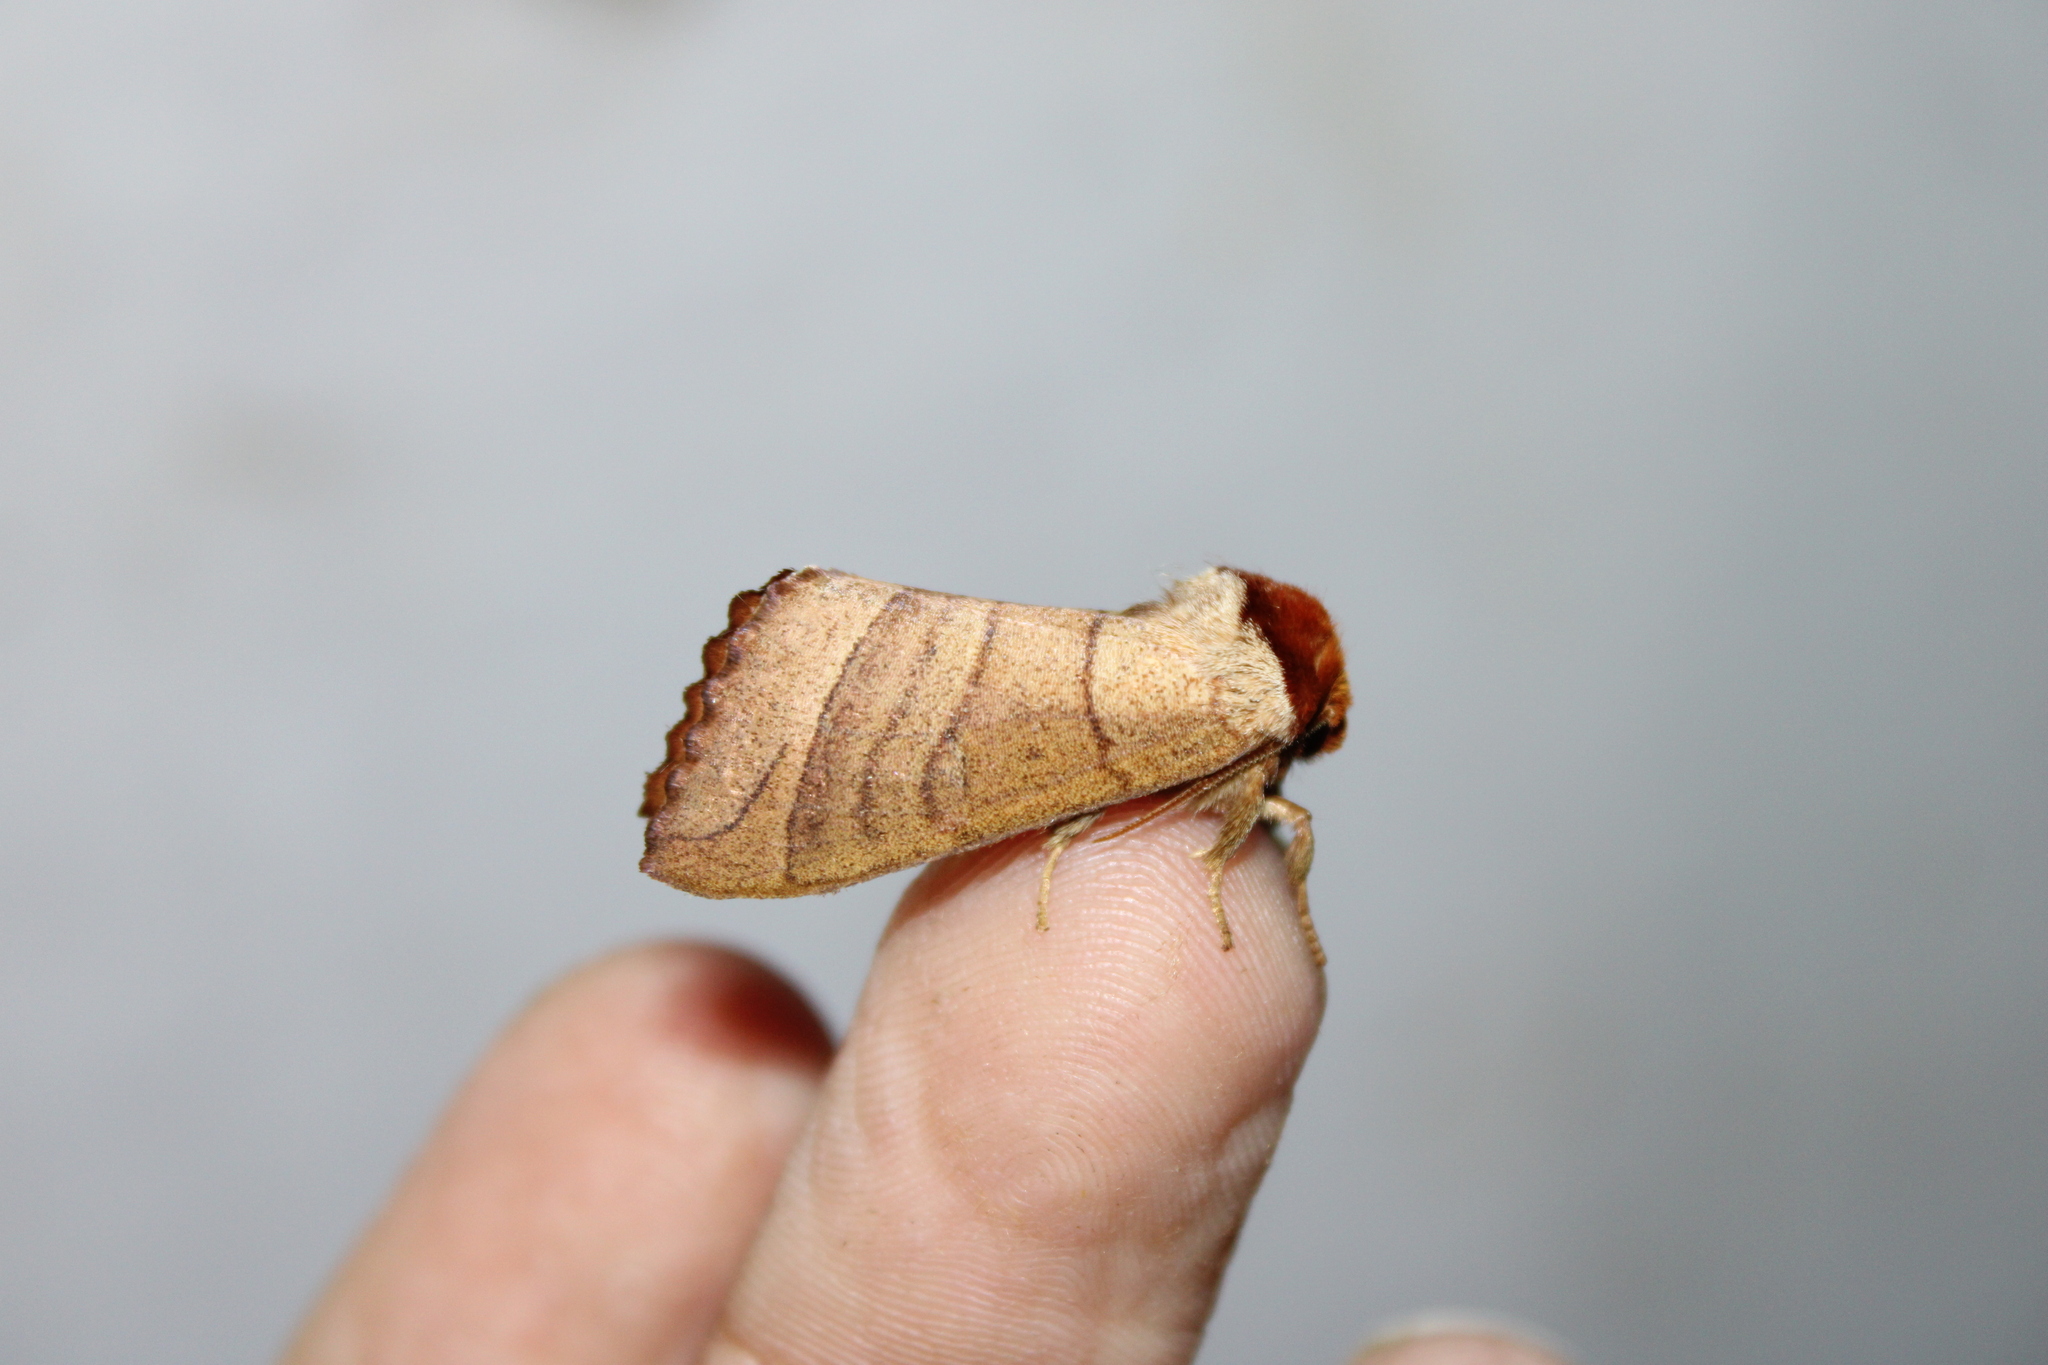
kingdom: Animalia
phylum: Arthropoda
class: Insecta
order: Lepidoptera
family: Notodontidae
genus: Datana
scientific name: Datana ministra
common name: Yellow-necked caterpillar moth
